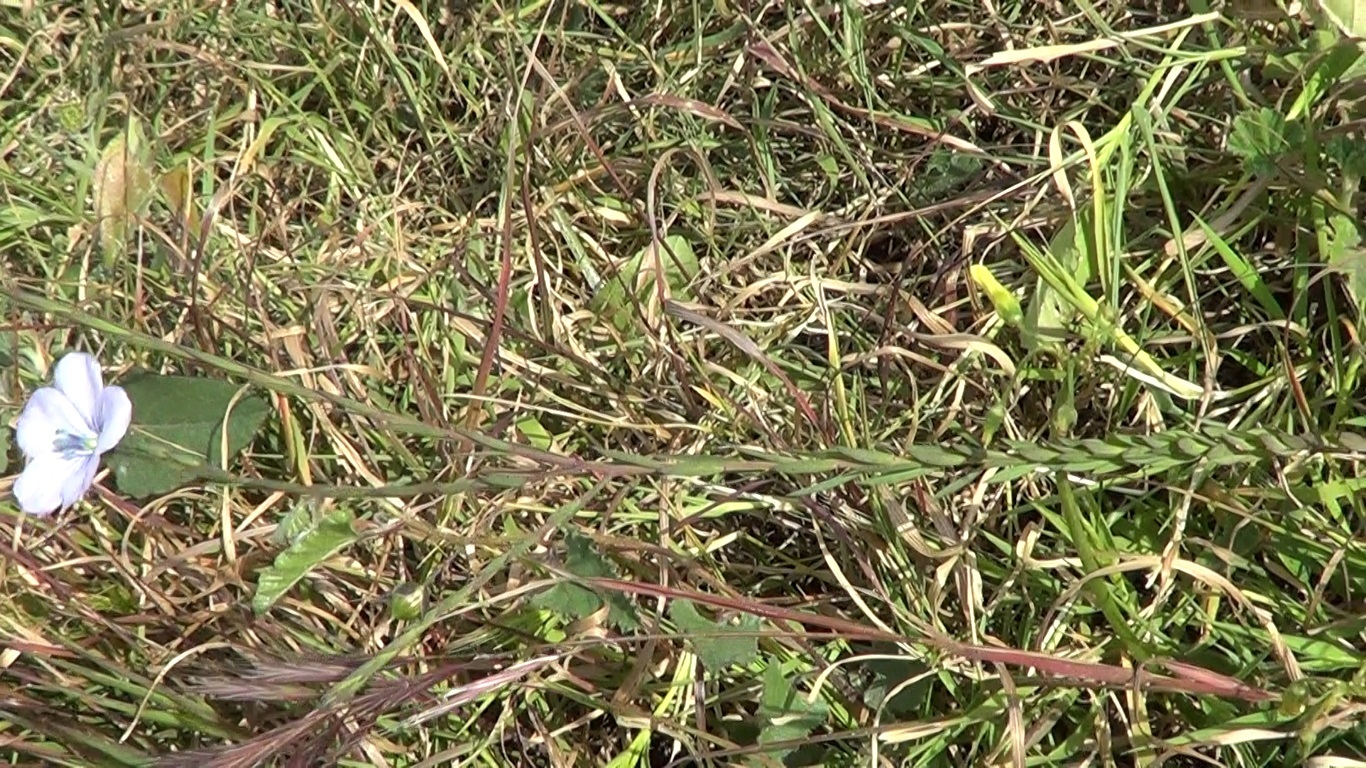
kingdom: Plantae
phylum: Tracheophyta
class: Magnoliopsida
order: Malpighiales
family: Linaceae
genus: Linum
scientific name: Linum bienne
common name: Pale flax
